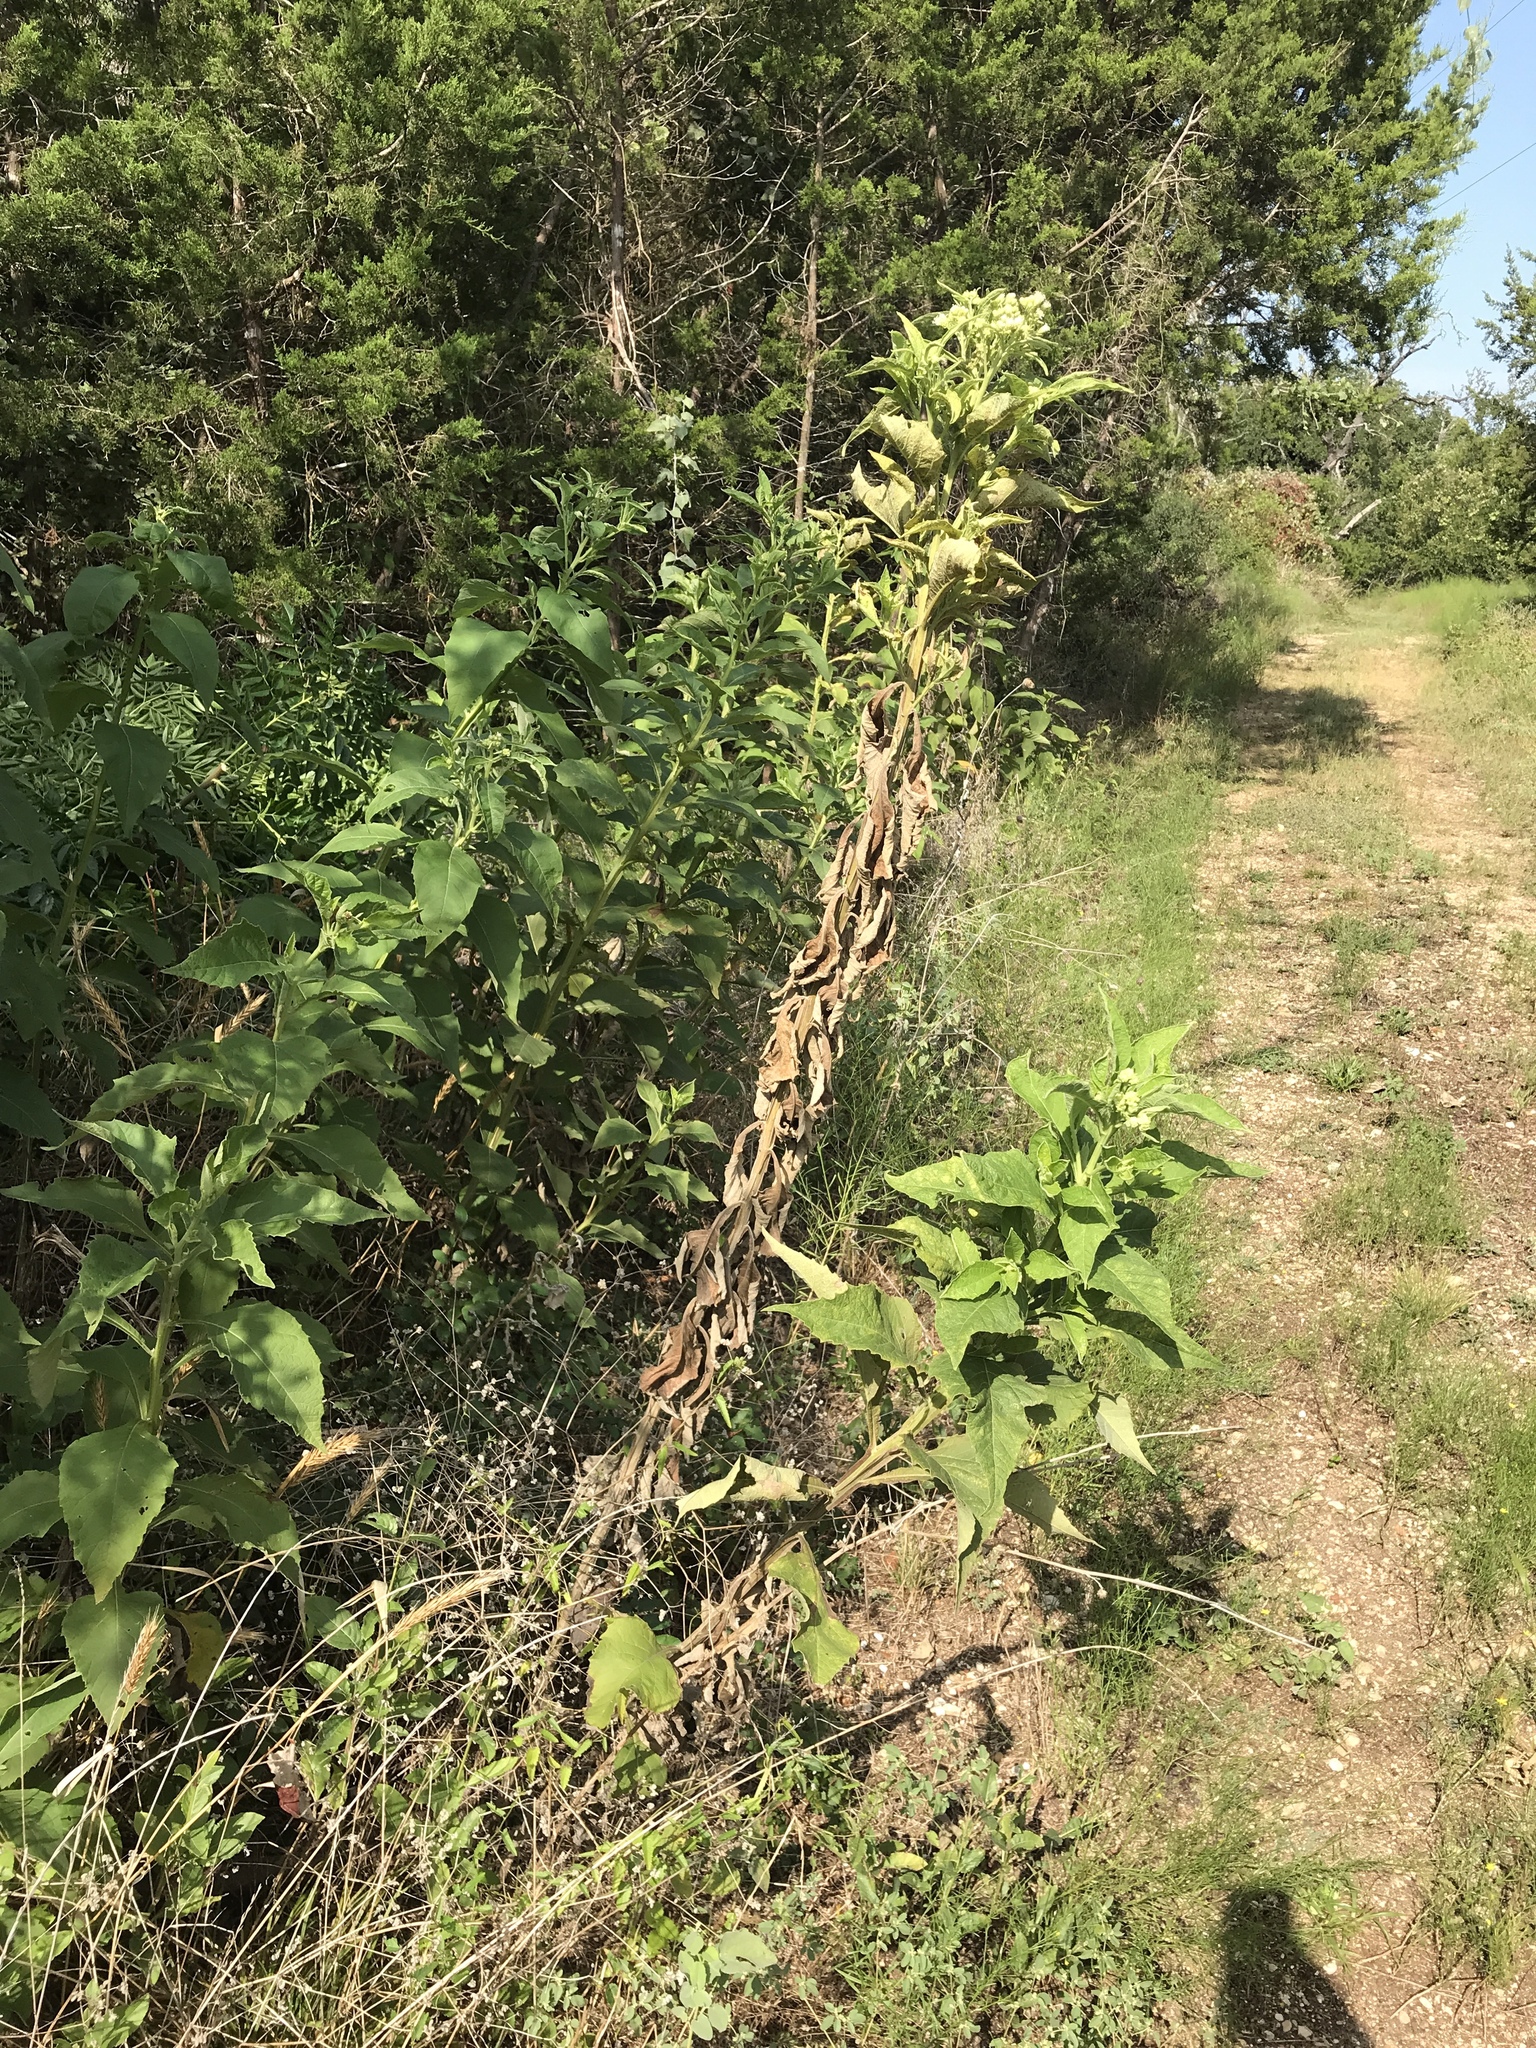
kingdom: Plantae
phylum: Tracheophyta
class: Magnoliopsida
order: Asterales
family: Asteraceae
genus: Verbesina
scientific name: Verbesina virginica
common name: Frostweed
